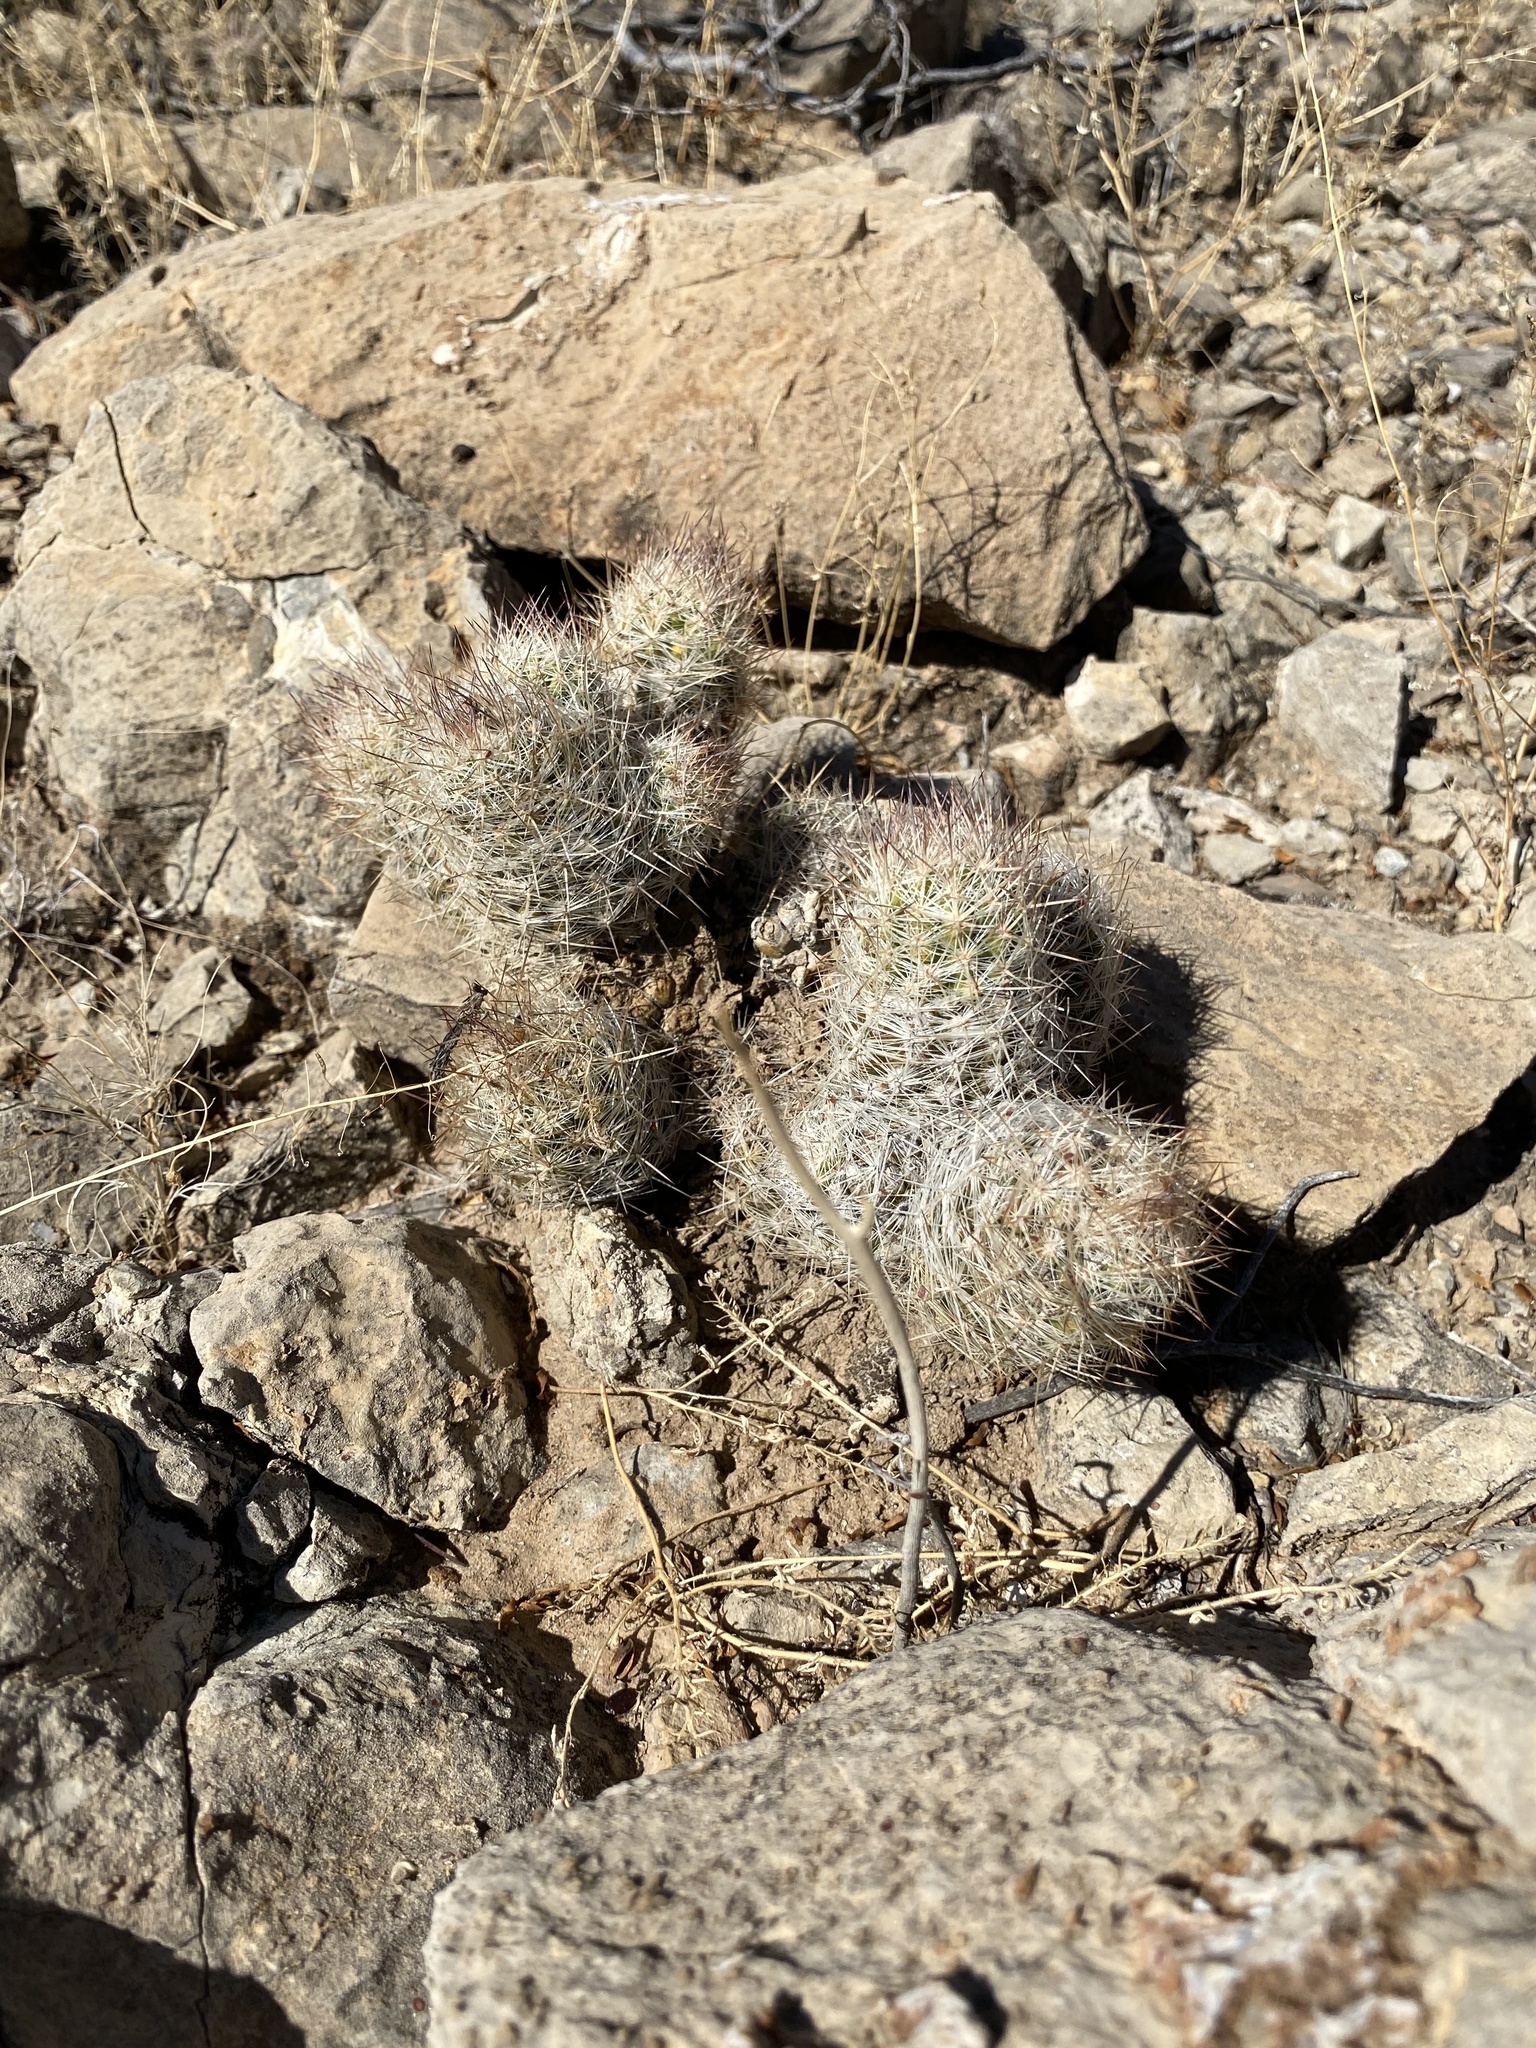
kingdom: Plantae
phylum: Tracheophyta
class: Magnoliopsida
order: Caryophyllales
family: Cactaceae
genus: Pelecyphora
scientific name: Pelecyphora tuberculosa
